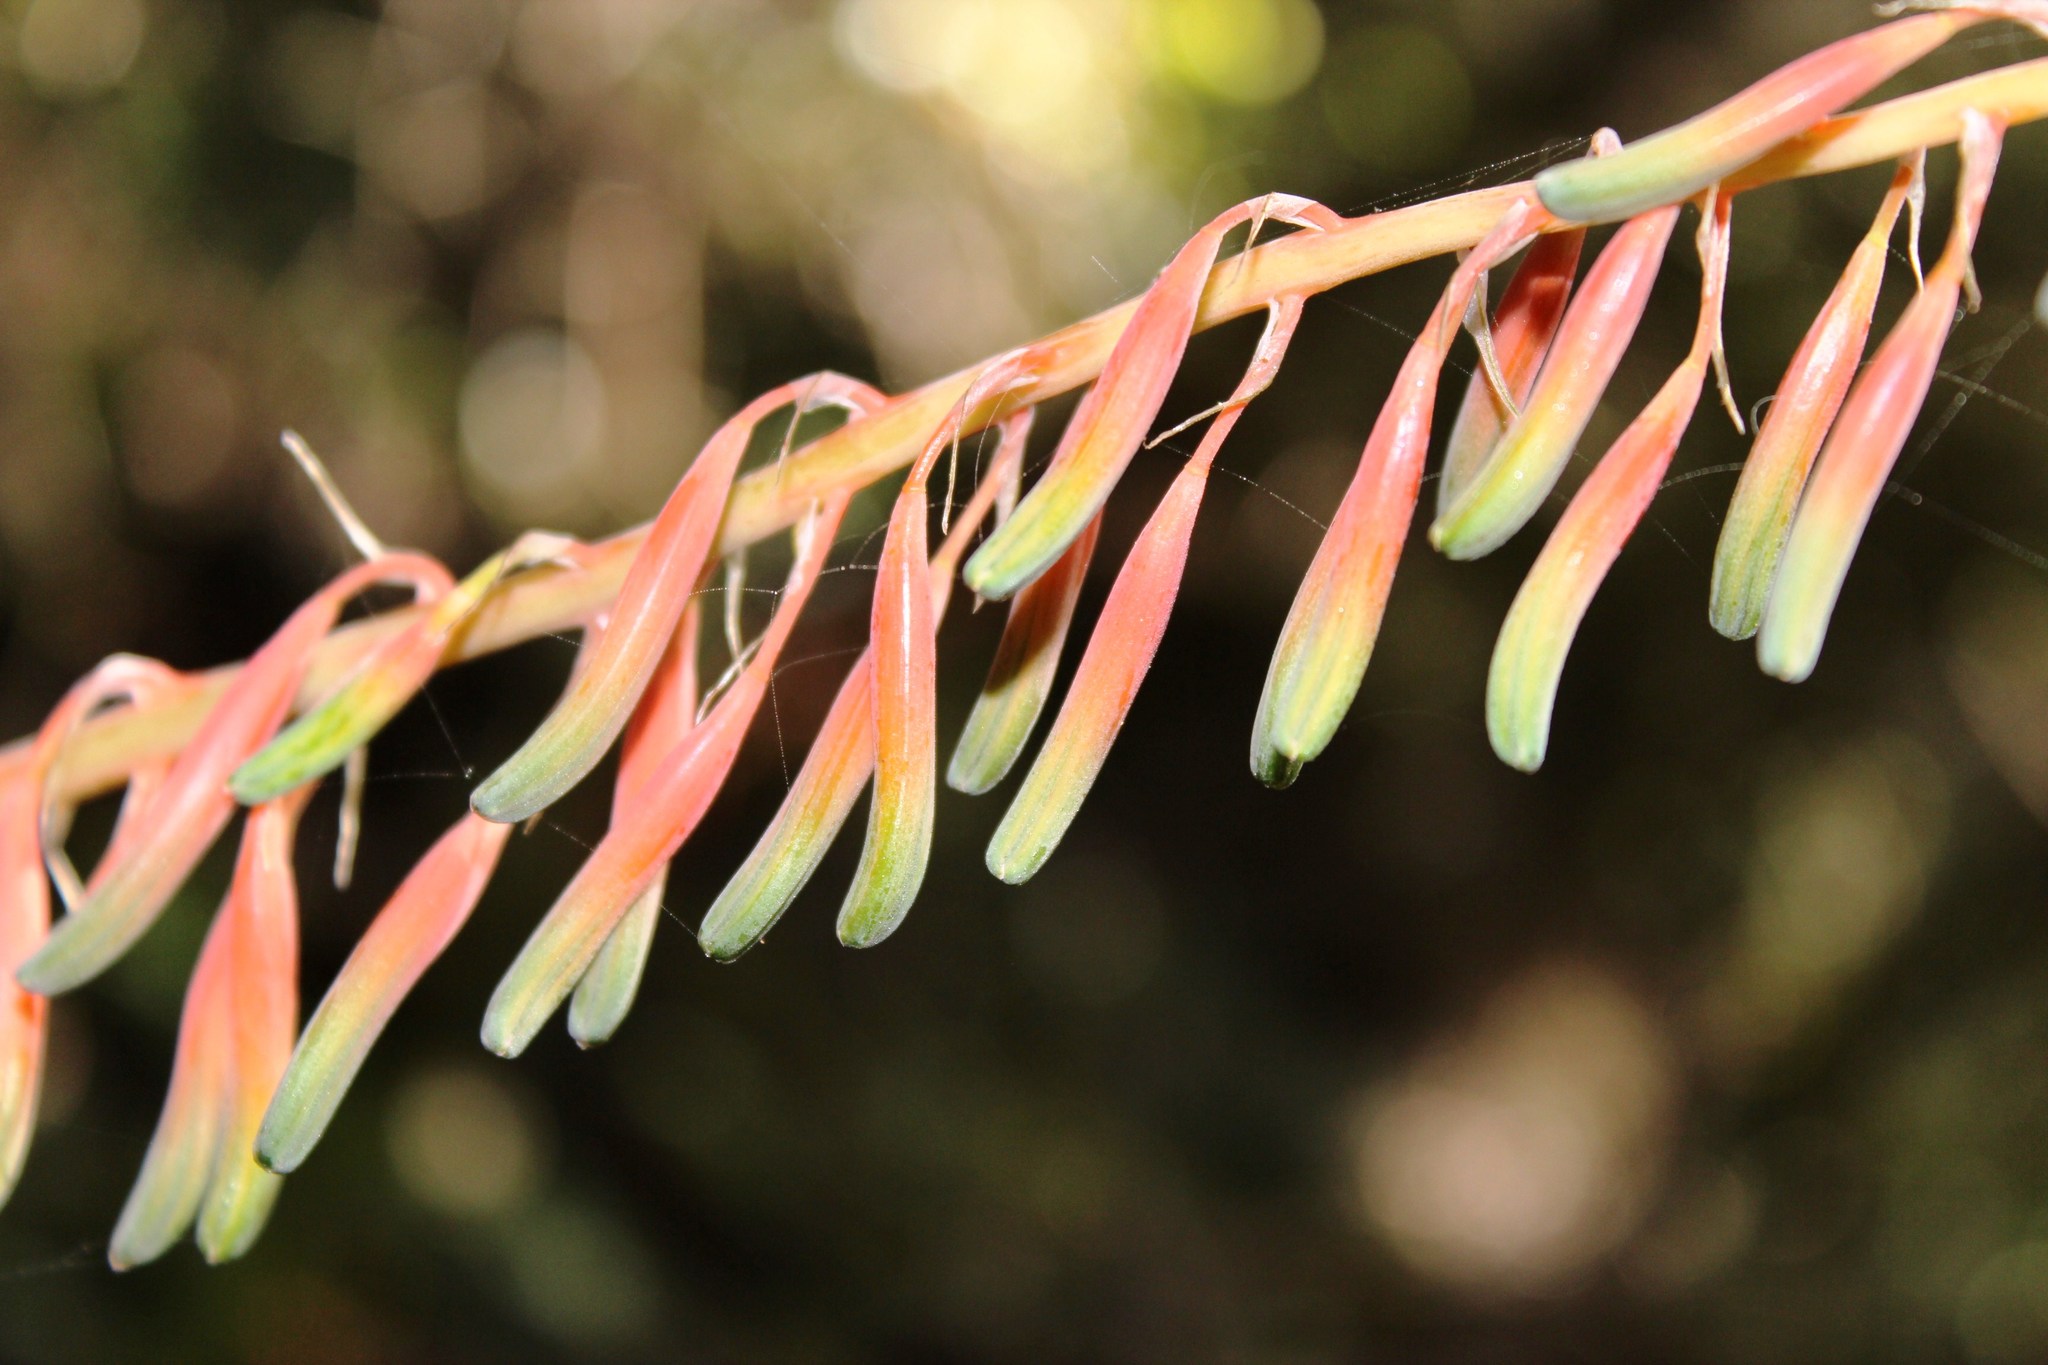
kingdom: Plantae
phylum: Tracheophyta
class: Liliopsida
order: Asparagales
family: Asphodelaceae
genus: Gasteria
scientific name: Gasteria acinacifolia
